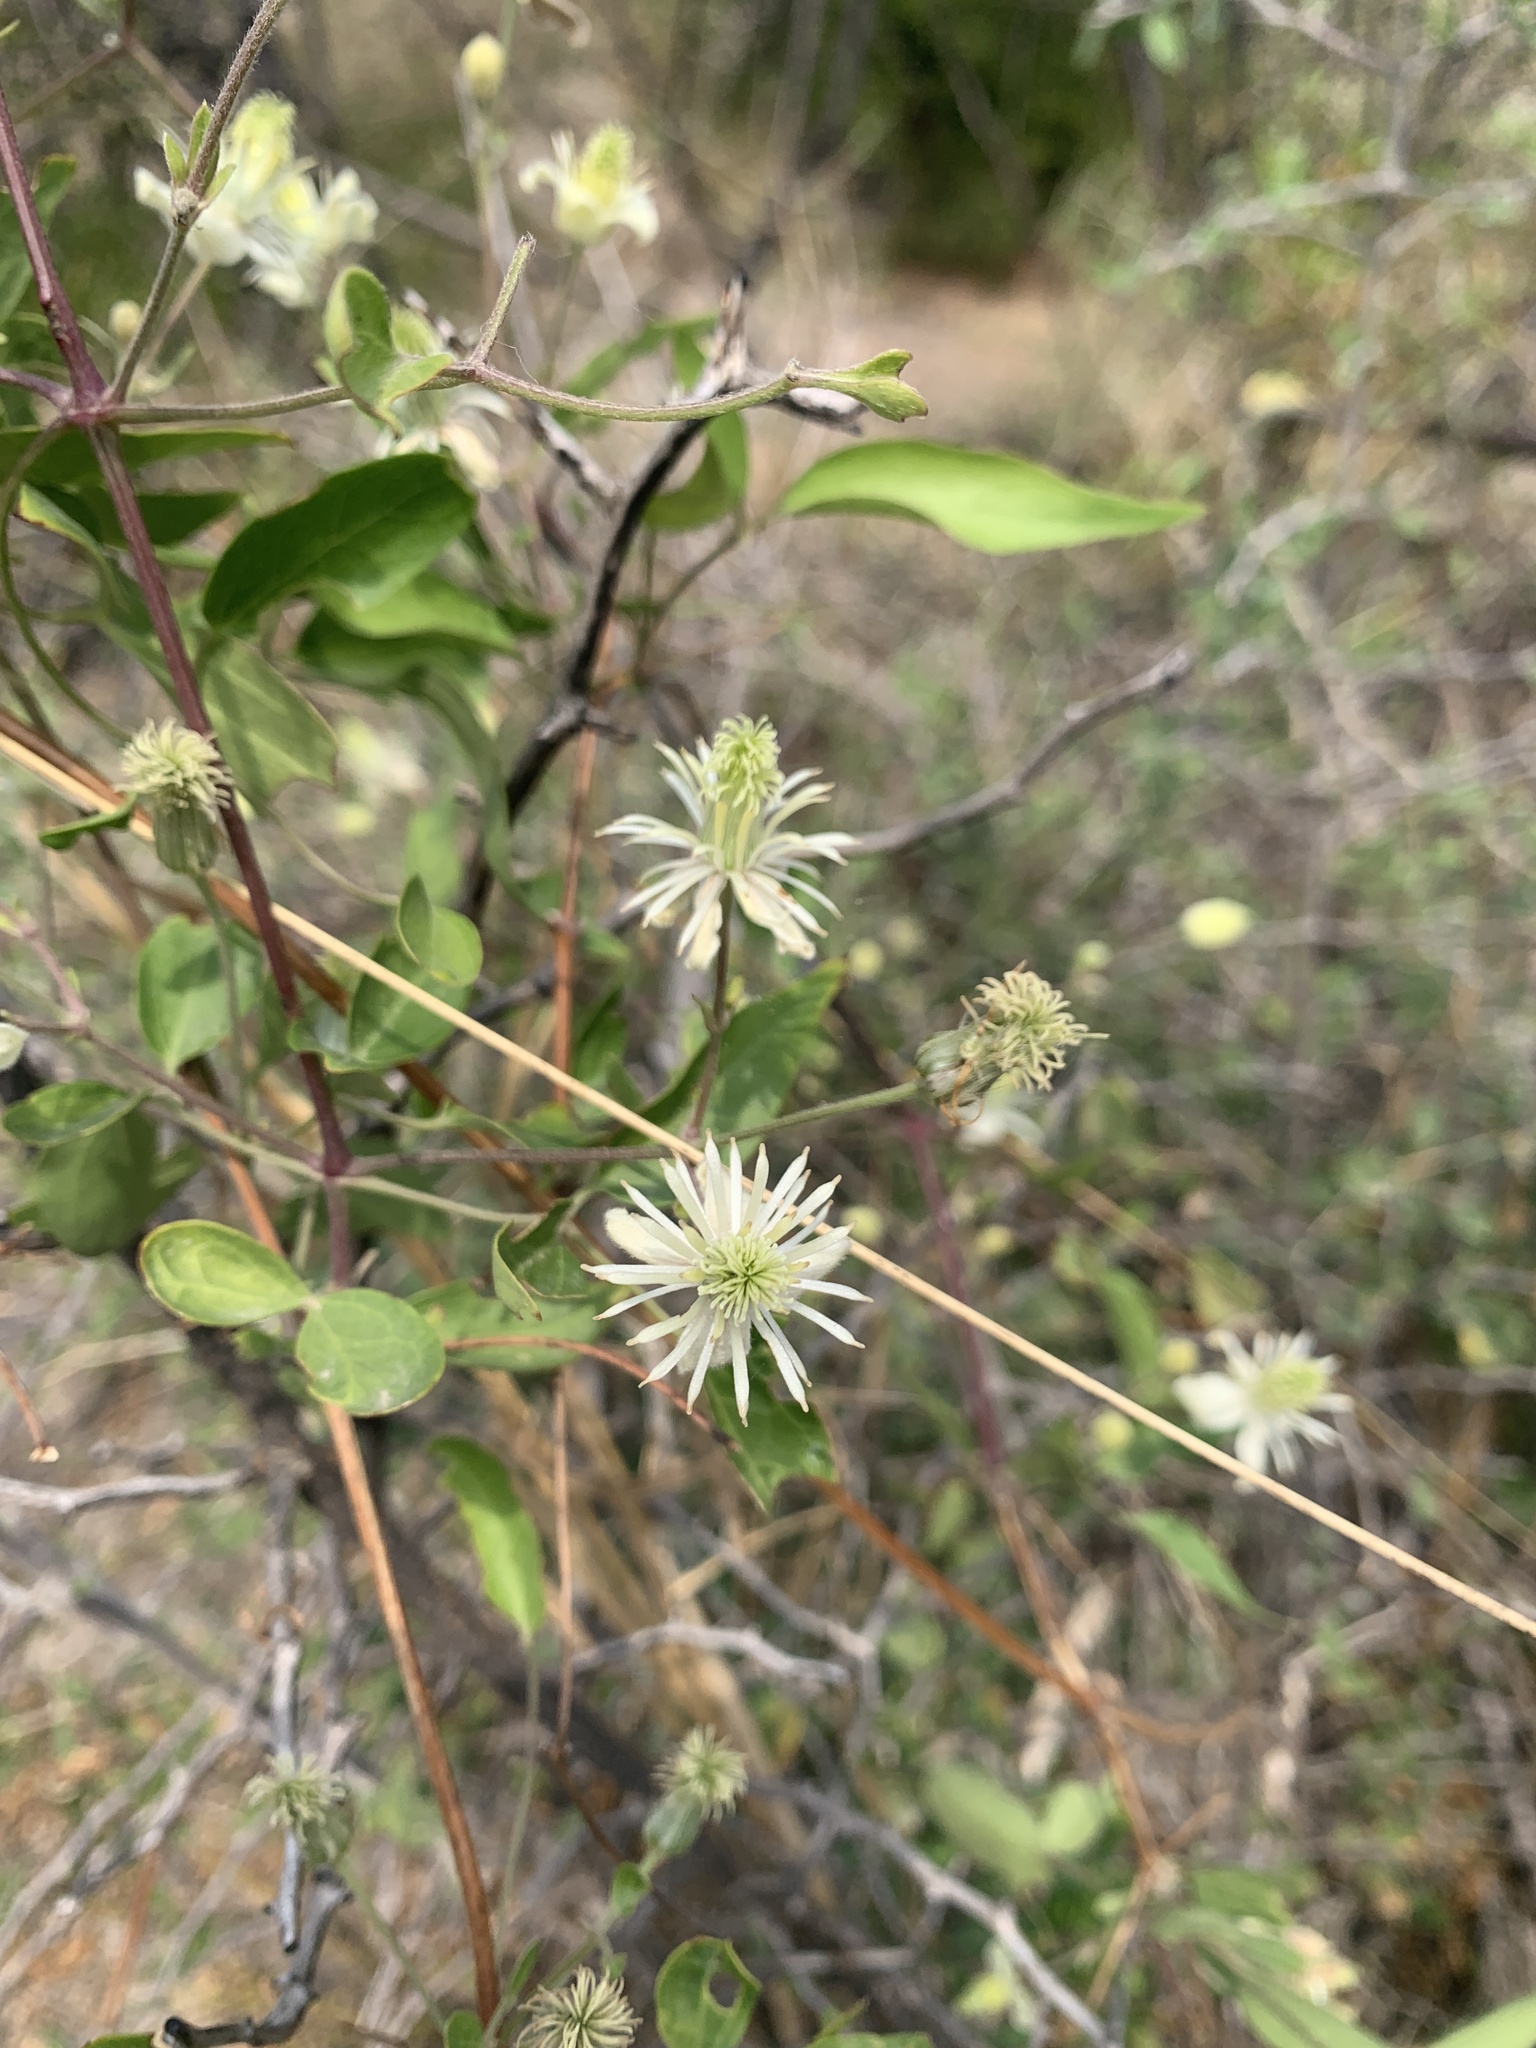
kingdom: Plantae
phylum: Tracheophyta
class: Magnoliopsida
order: Ranunculales
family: Ranunculaceae
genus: Clematis
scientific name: Clematis montevidensis
